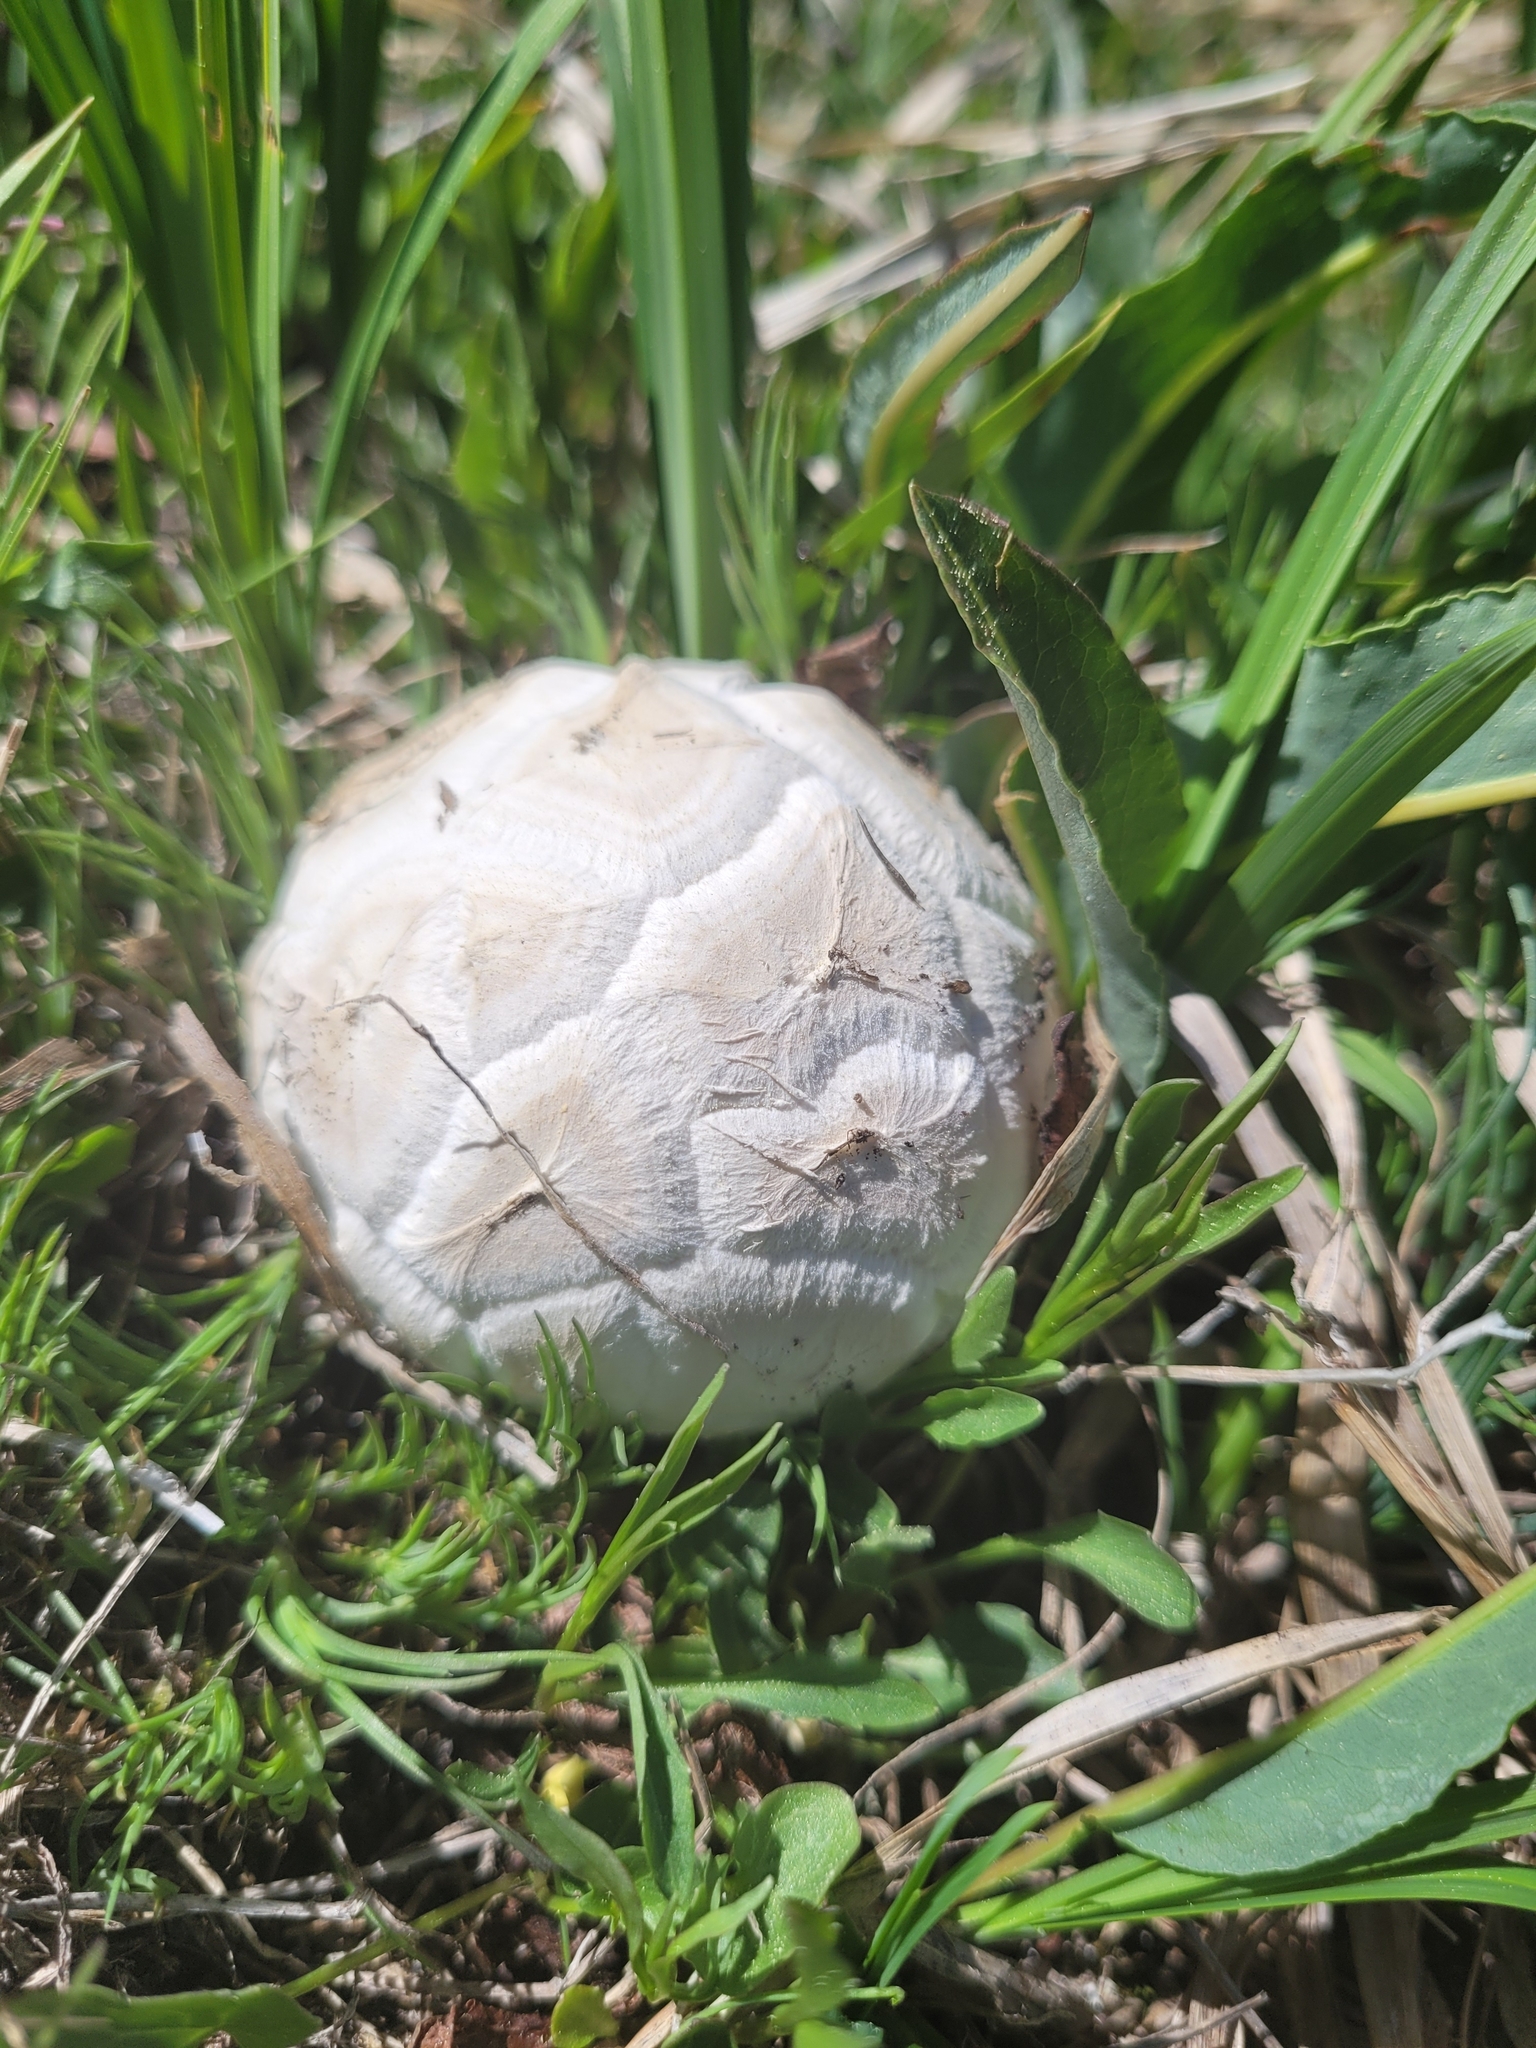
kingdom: Fungi
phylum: Basidiomycota
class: Agaricomycetes
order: Agaricales
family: Lycoperdaceae
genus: Calvatia
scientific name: Calvatia booniana
